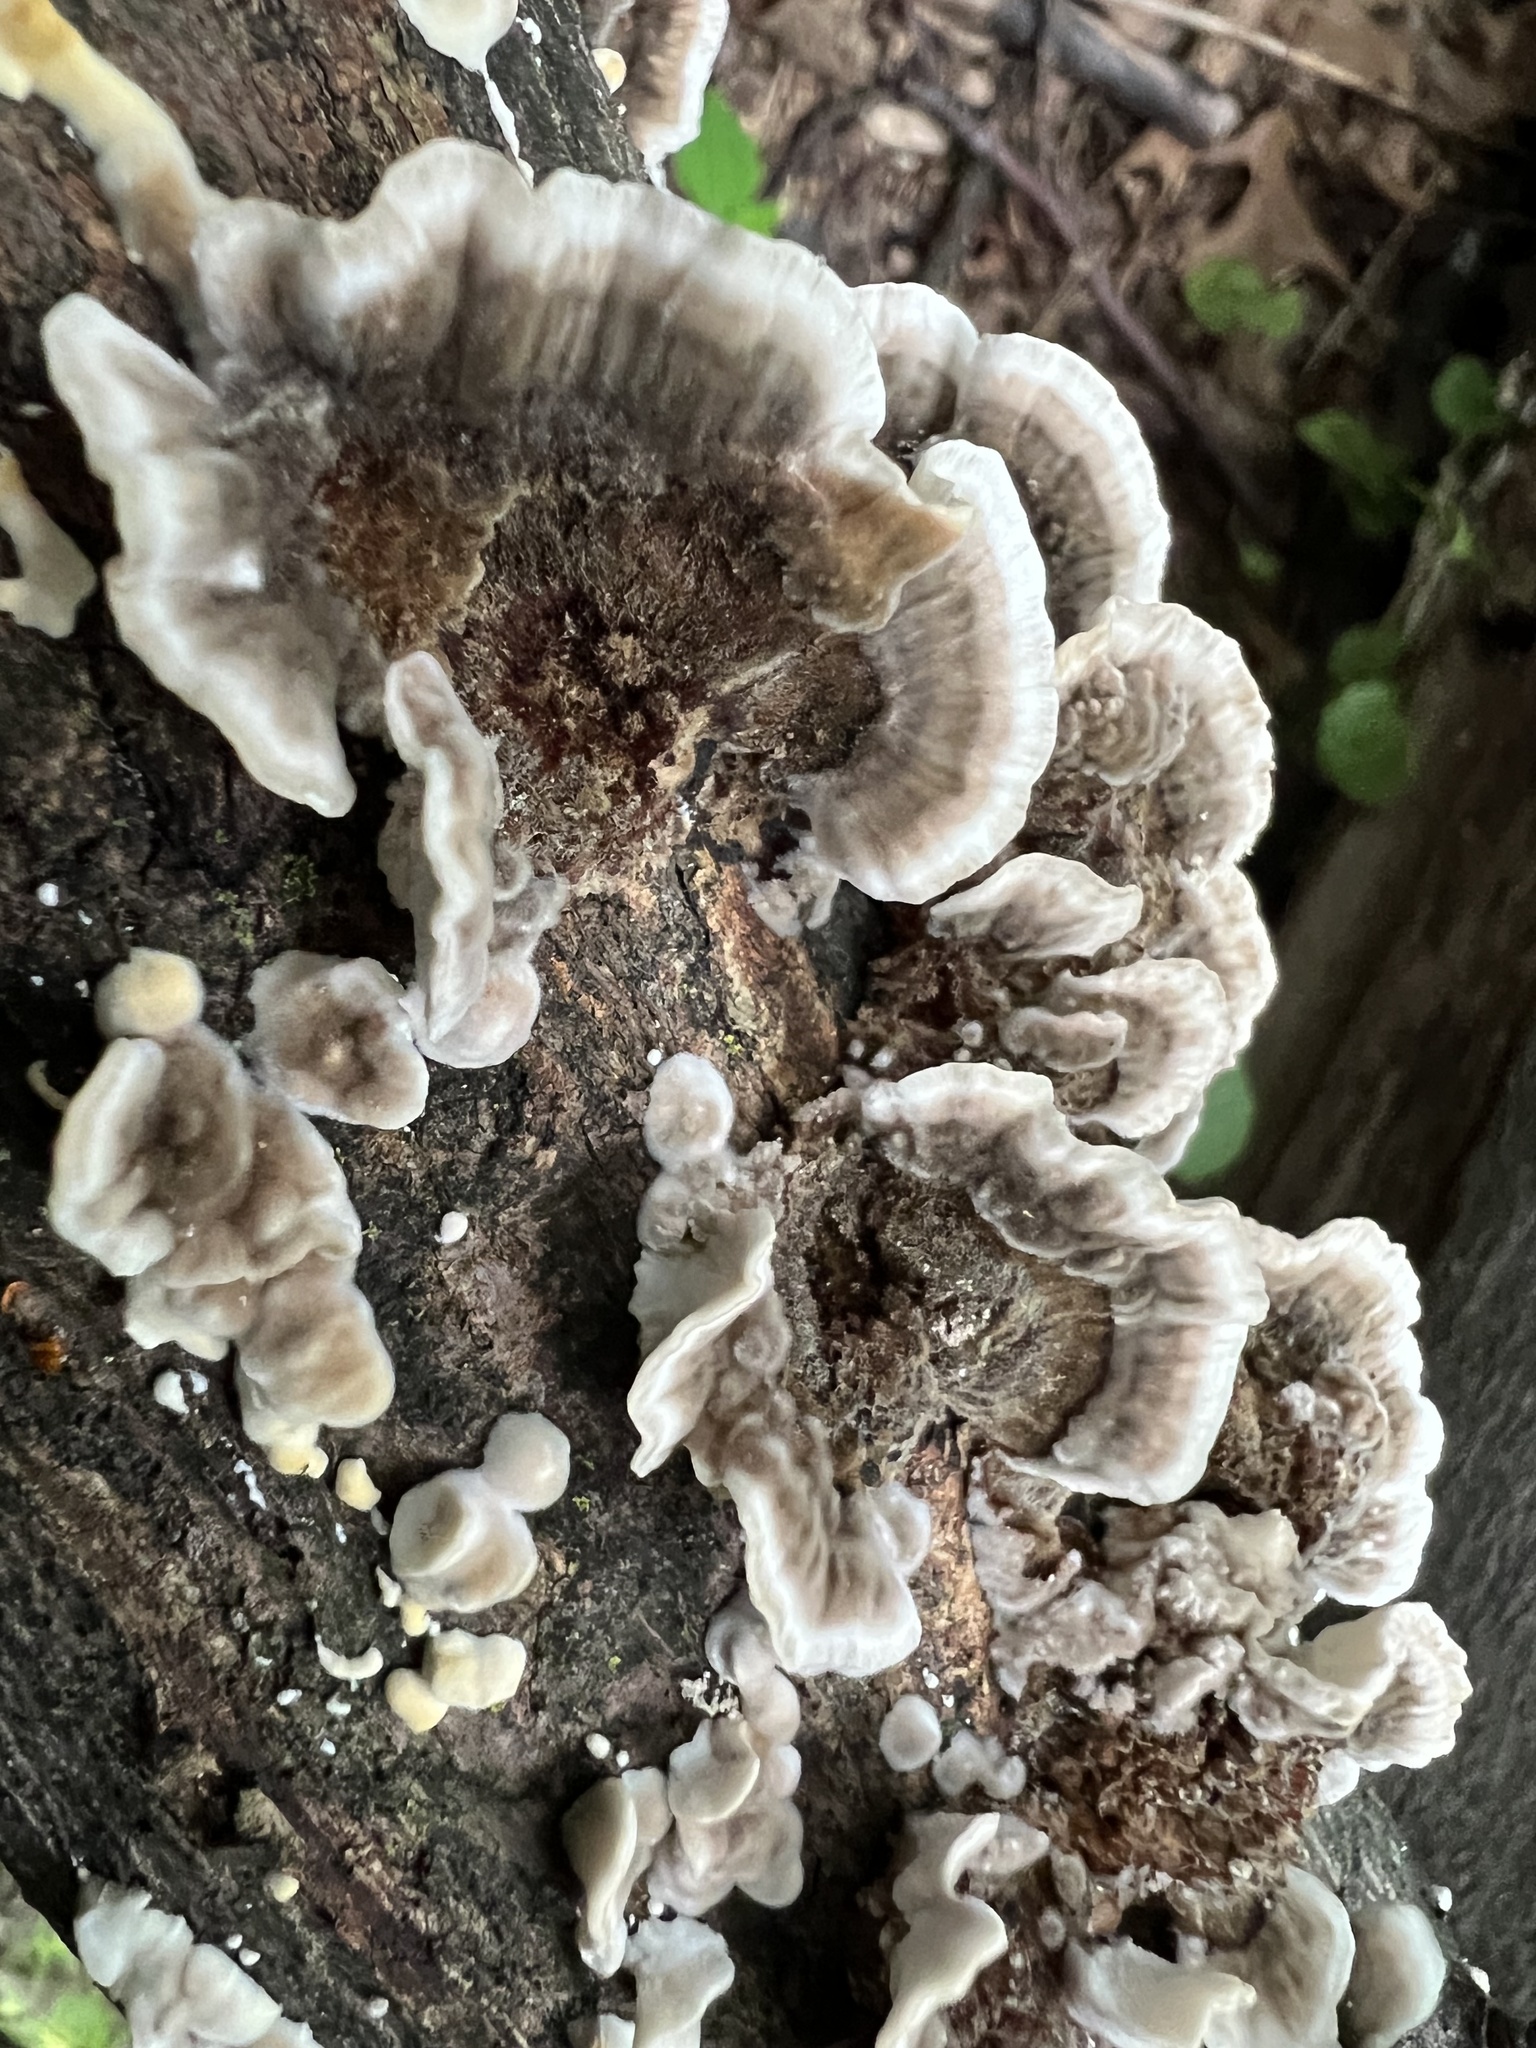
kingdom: Fungi
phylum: Basidiomycota
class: Agaricomycetes
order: Polyporales
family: Polyporaceae
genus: Trametes
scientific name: Trametes versicolor
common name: Turkeytail
